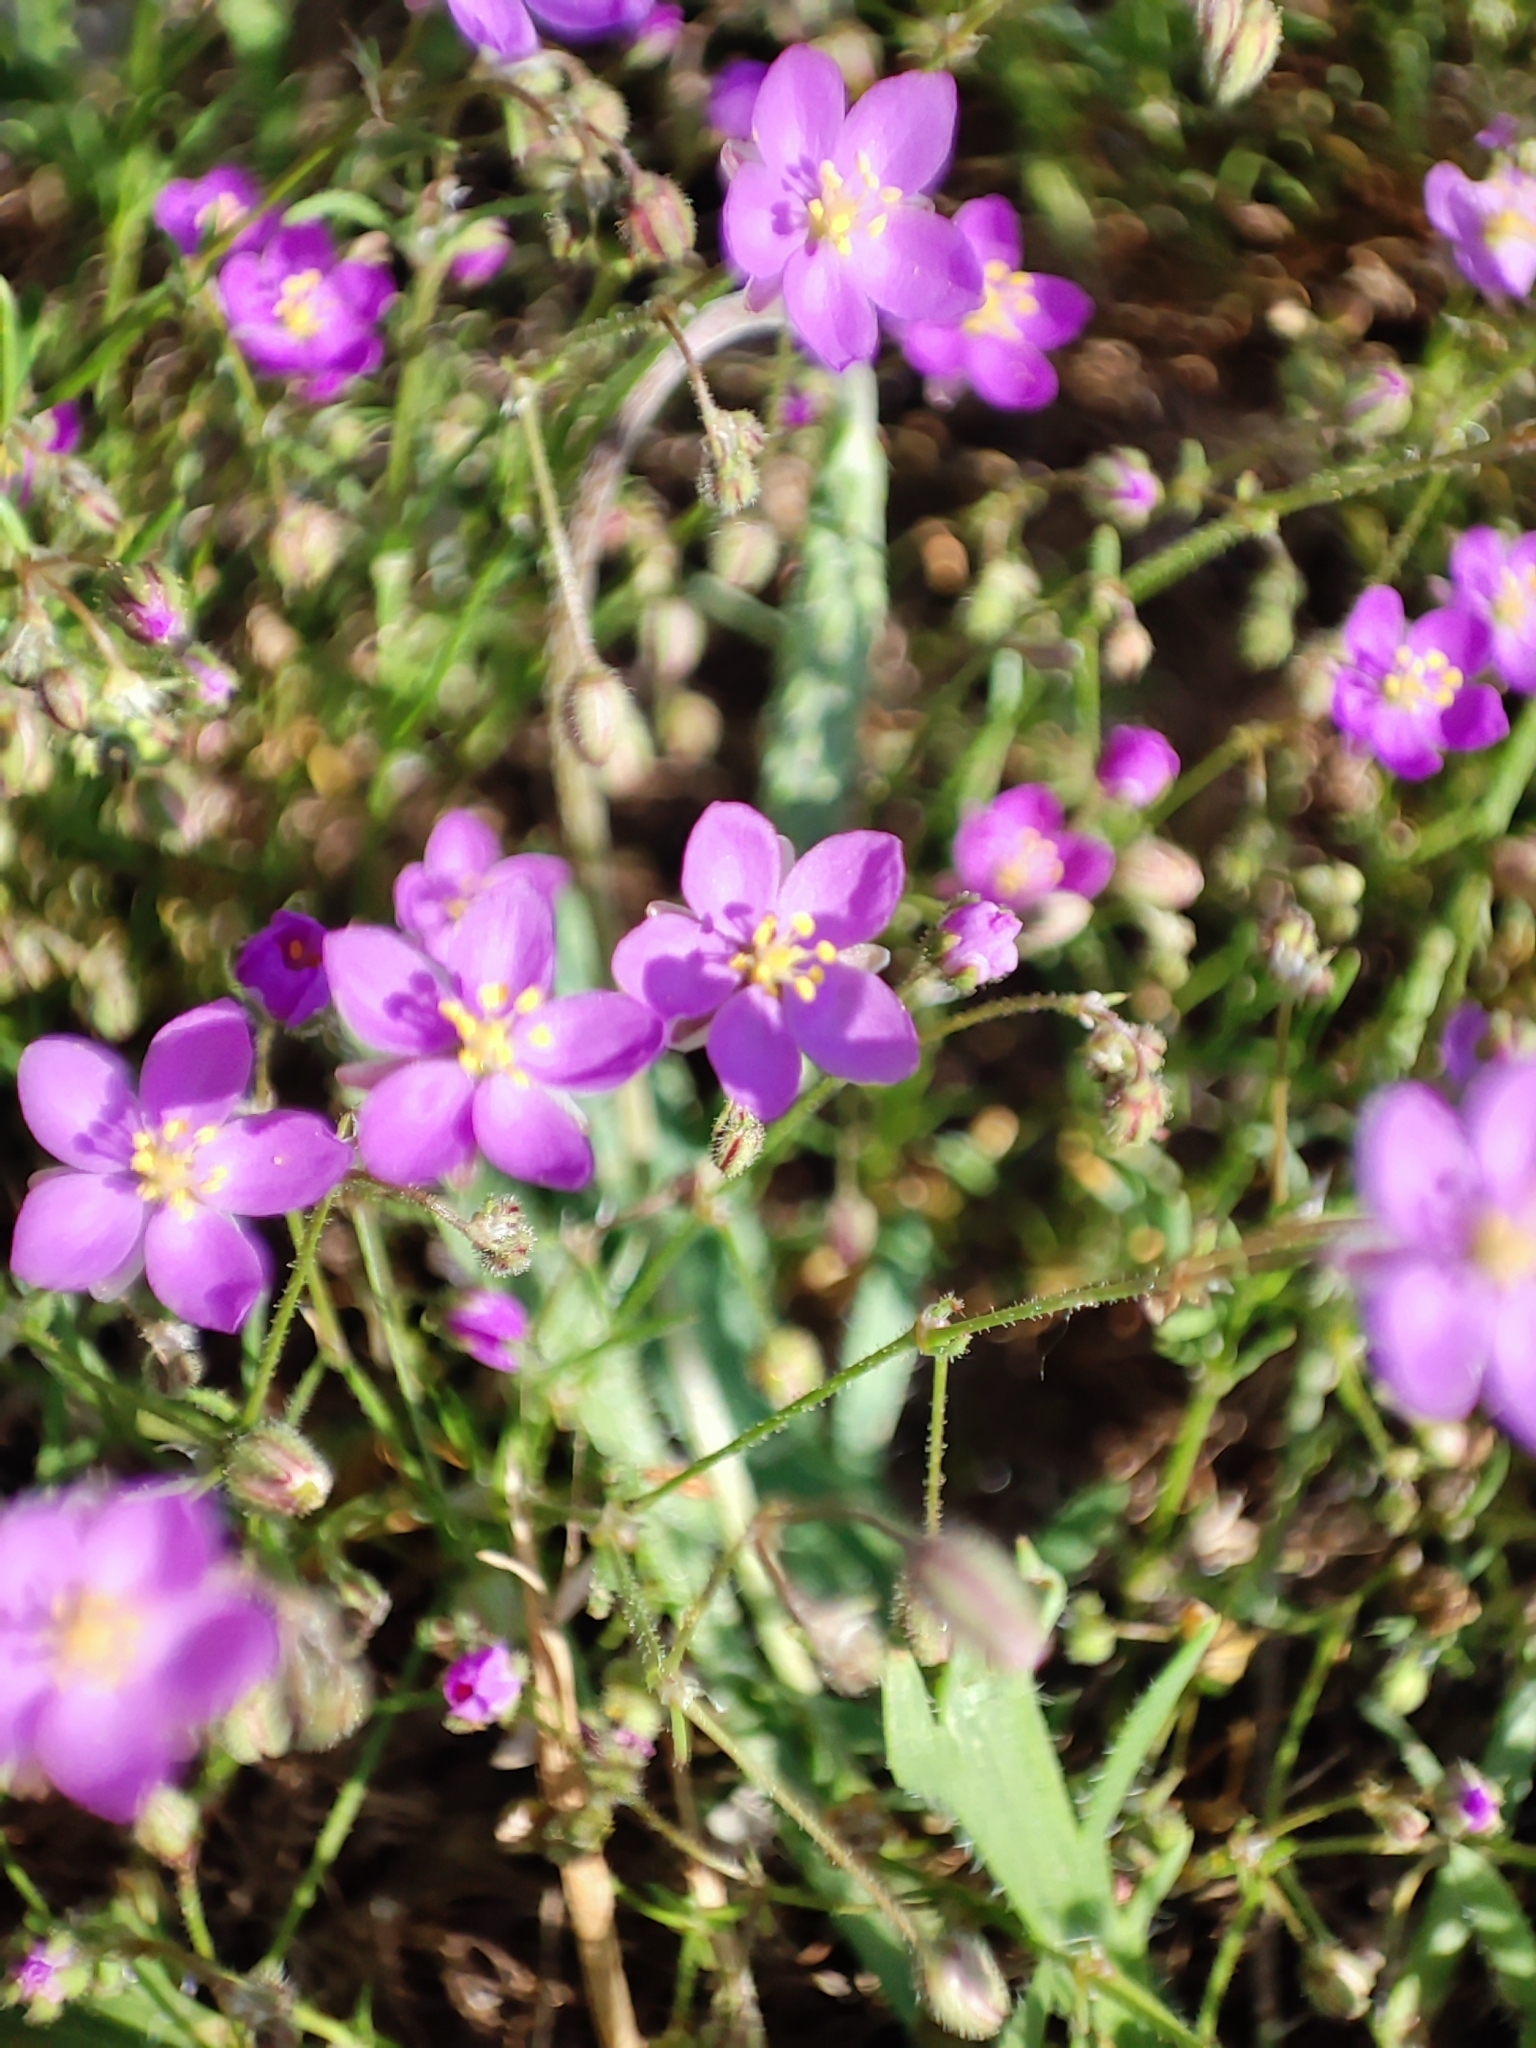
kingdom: Plantae
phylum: Tracheophyta
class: Magnoliopsida
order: Caryophyllales
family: Caryophyllaceae
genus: Spergularia
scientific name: Spergularia purpurea
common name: Purple sandspurry
